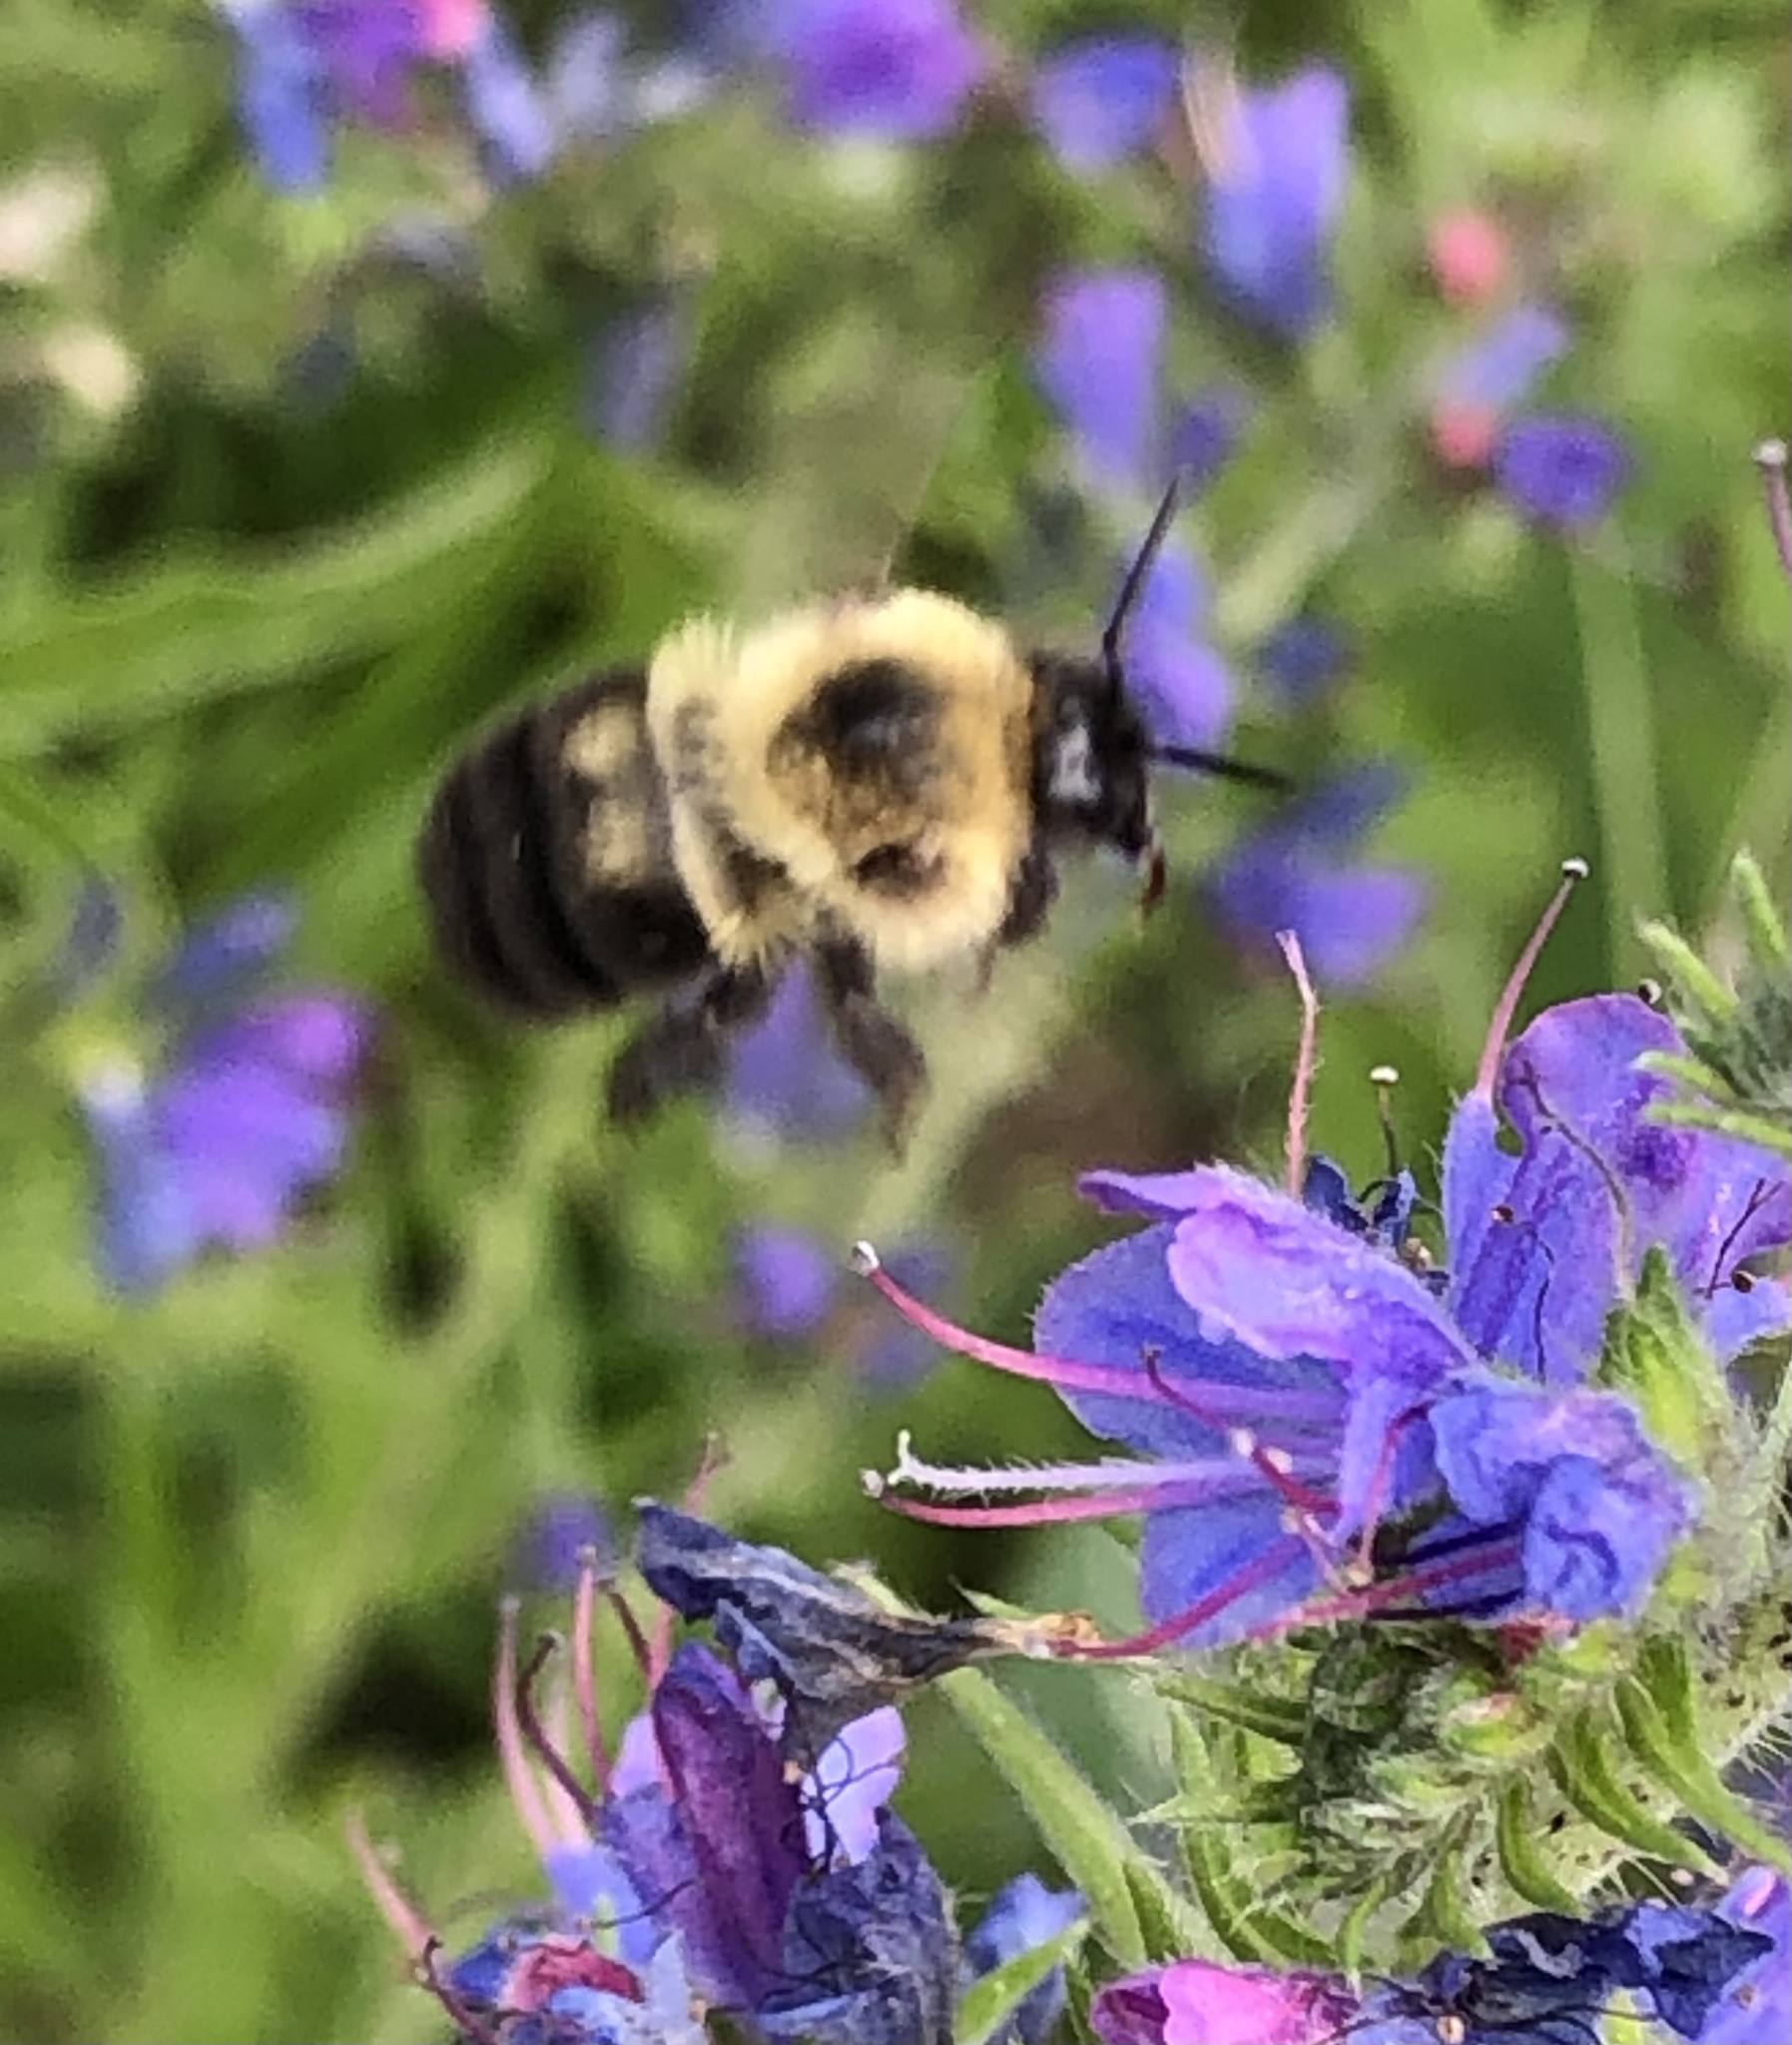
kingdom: Animalia
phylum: Arthropoda
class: Insecta
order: Hymenoptera
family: Apidae
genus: Bombus
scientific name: Bombus bimaculatus
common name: Two-spotted bumble bee
